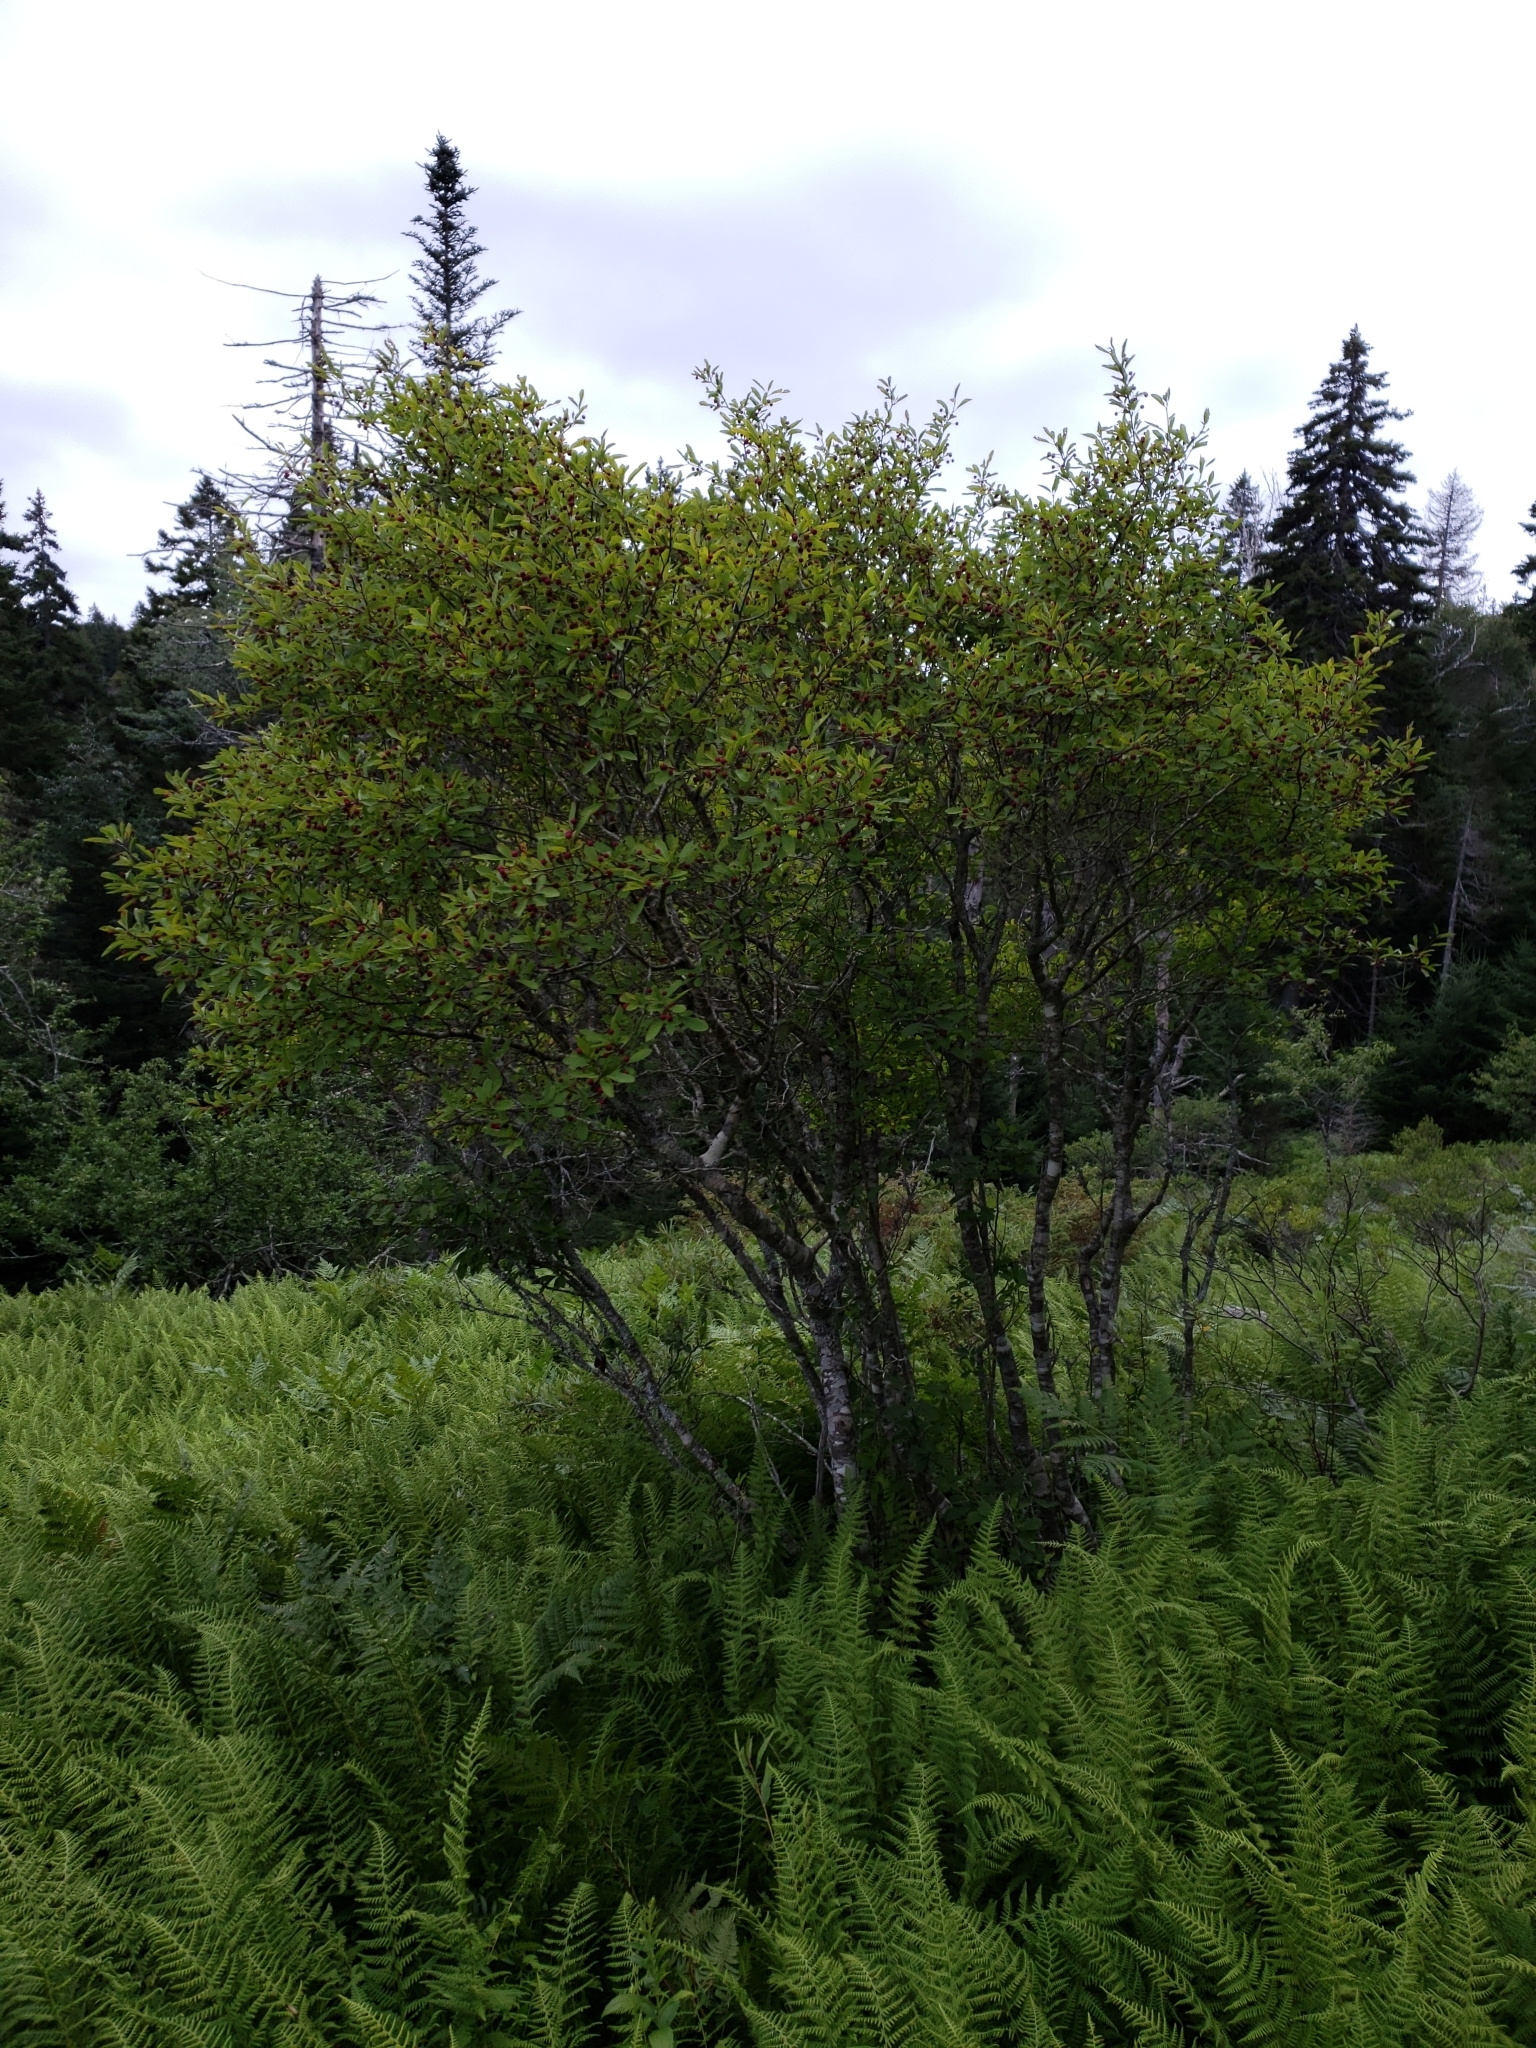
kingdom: Plantae
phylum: Tracheophyta
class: Magnoliopsida
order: Aquifoliales
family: Aquifoliaceae
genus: Ilex
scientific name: Ilex mucronata
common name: Catberry
